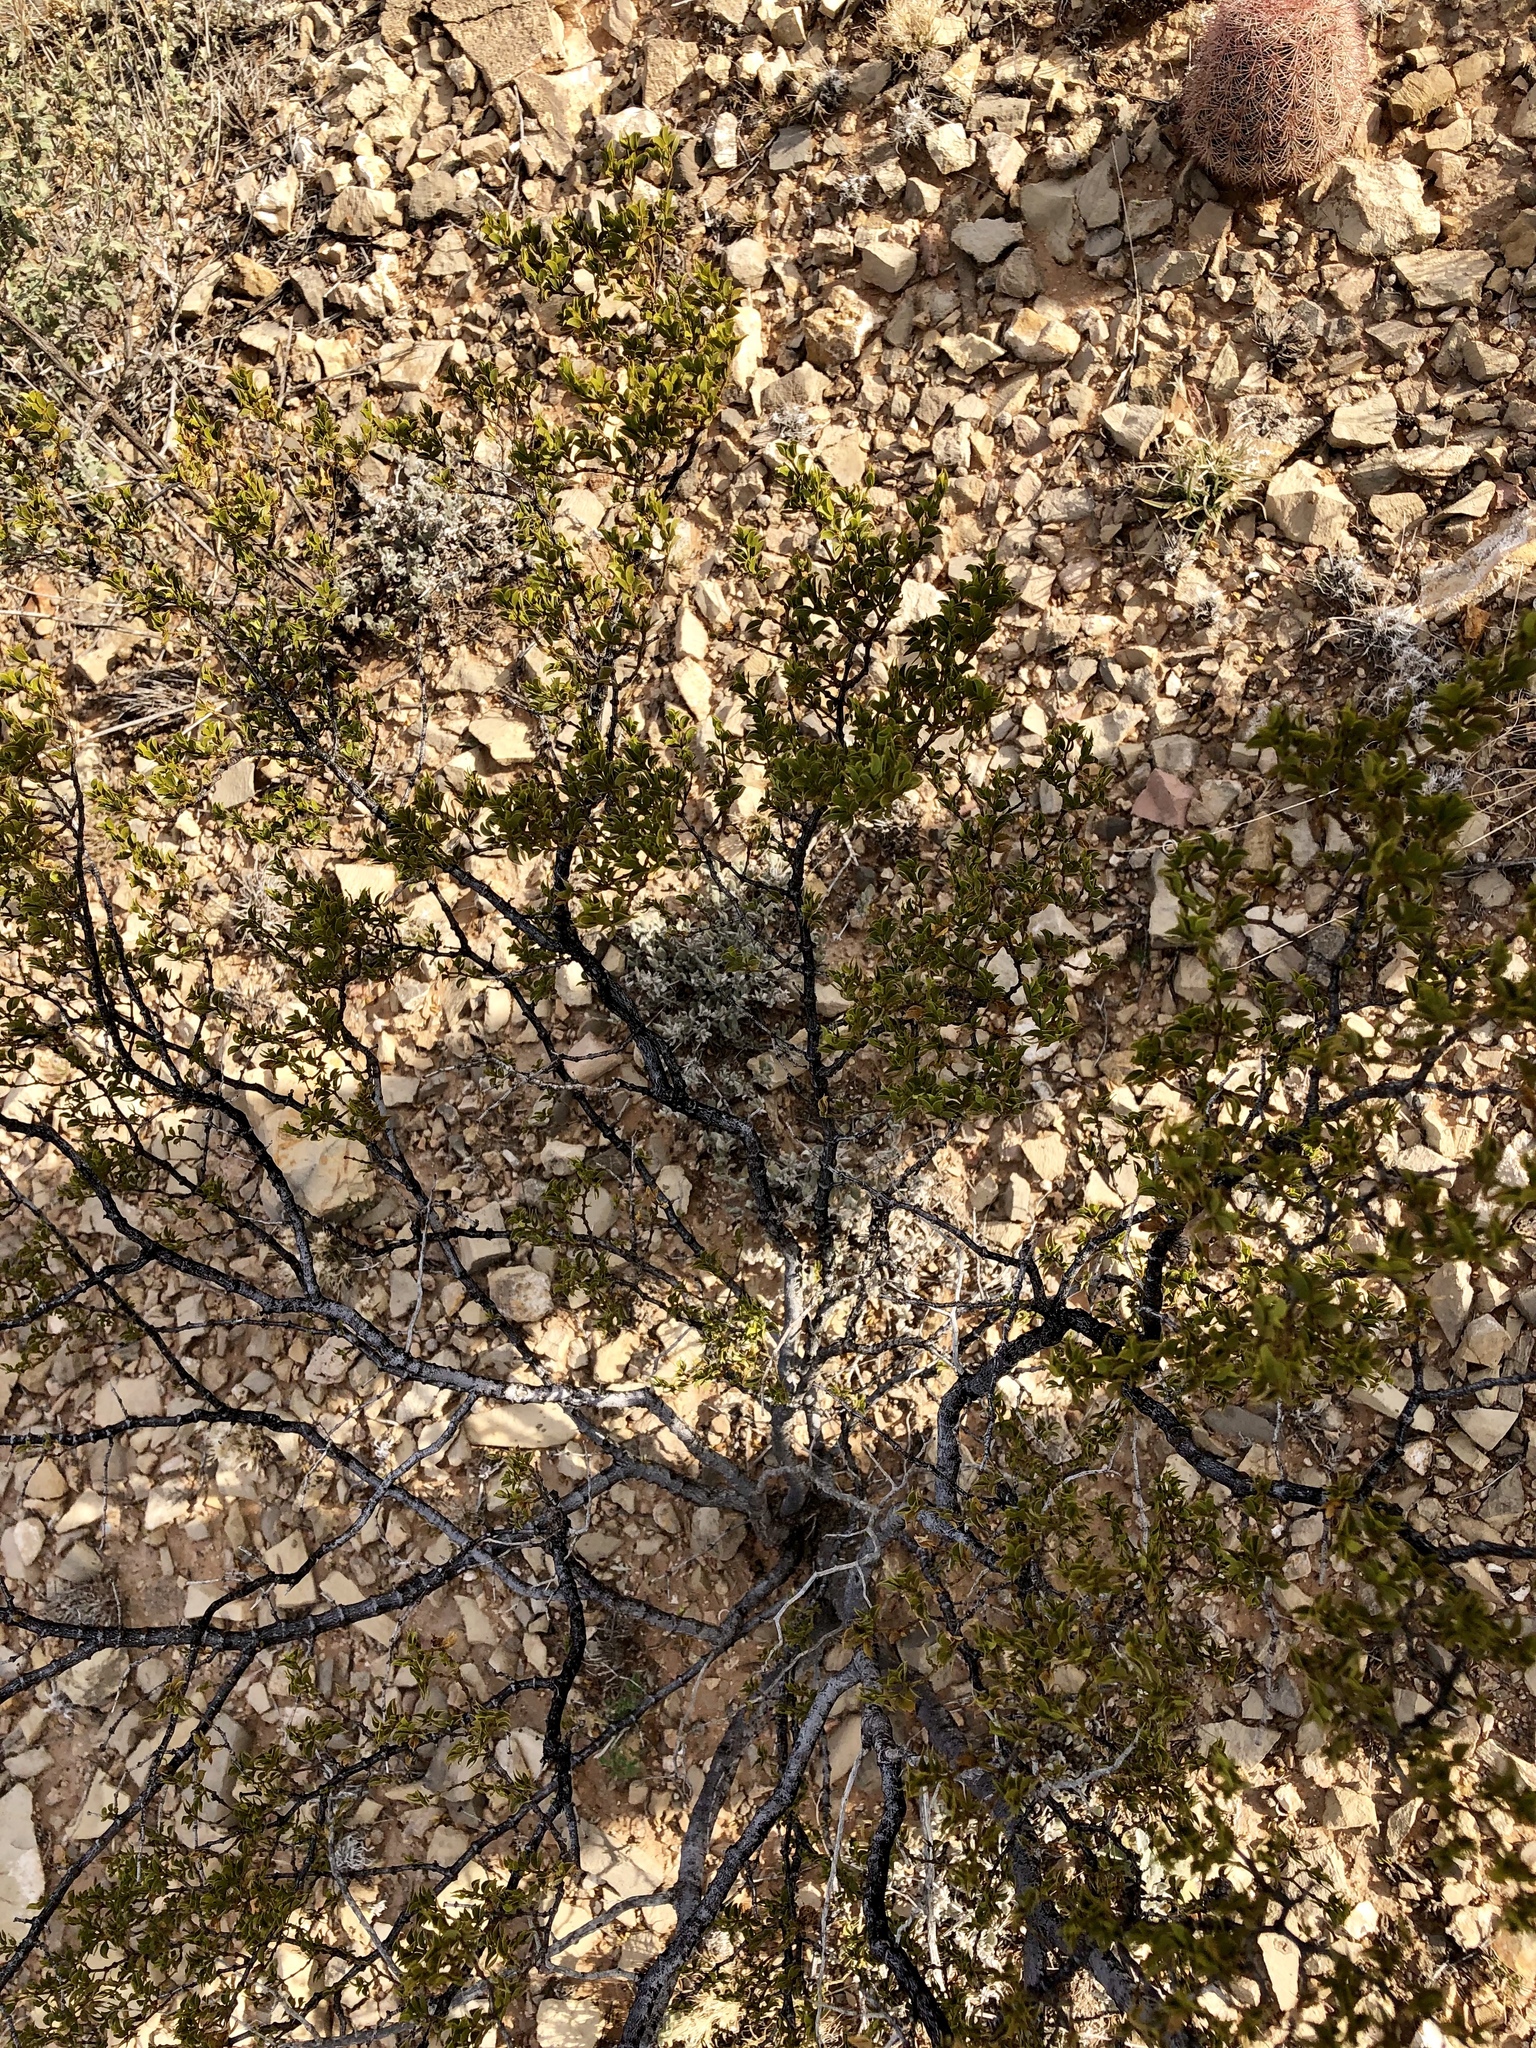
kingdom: Plantae
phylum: Tracheophyta
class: Magnoliopsida
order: Zygophyllales
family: Zygophyllaceae
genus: Larrea
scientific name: Larrea tridentata
